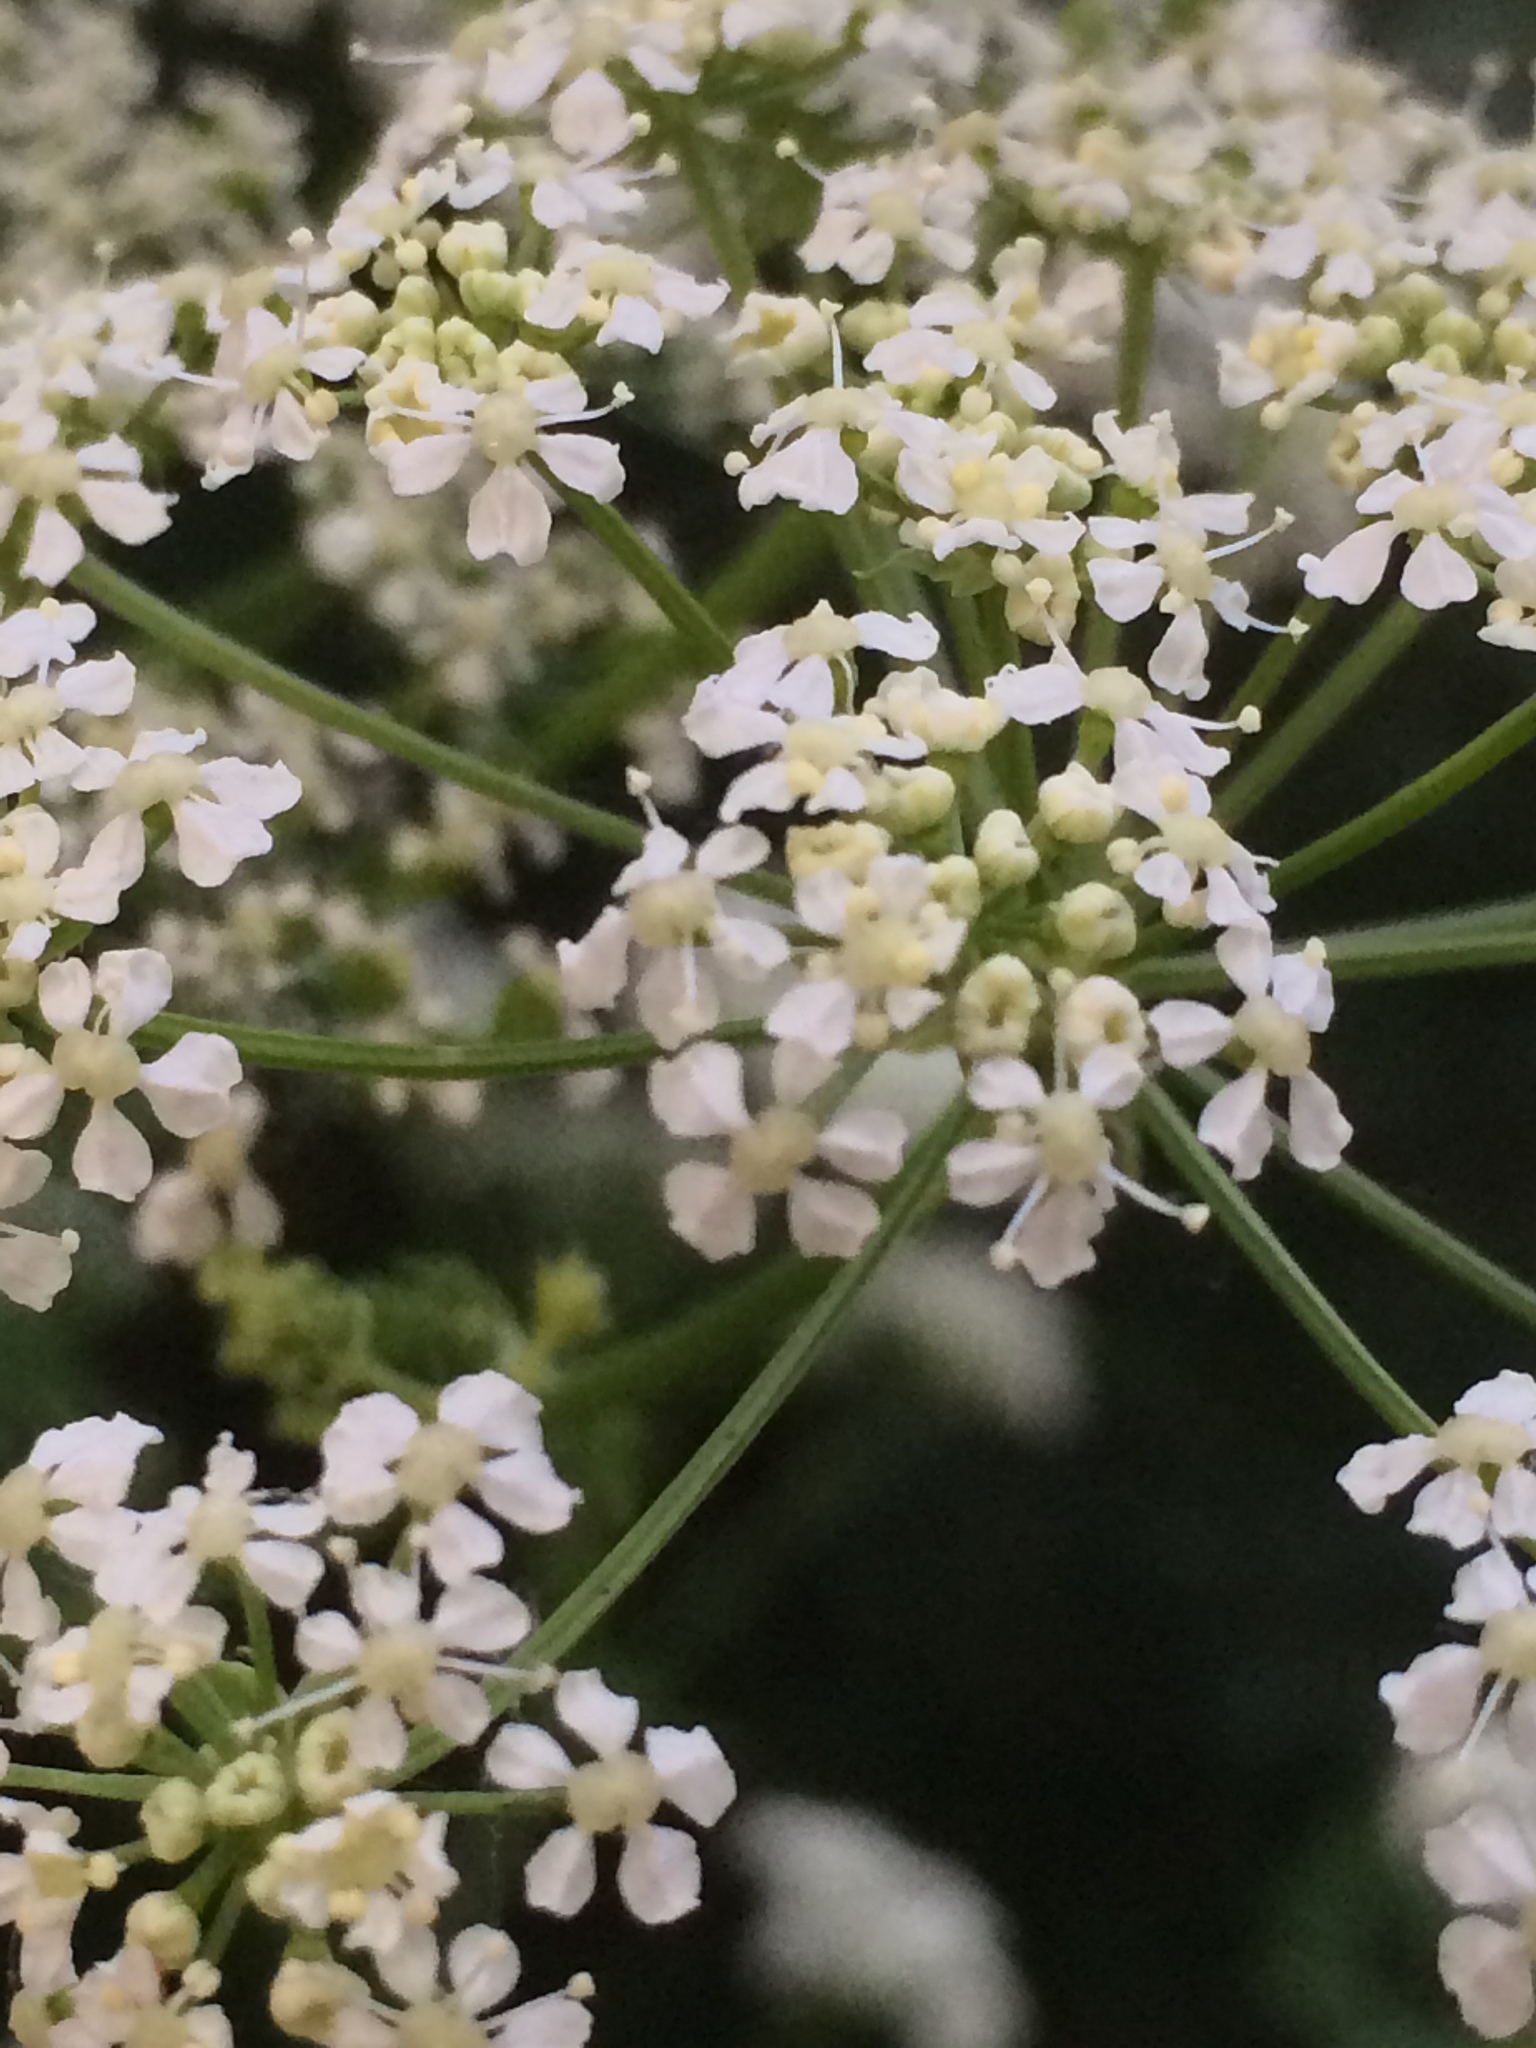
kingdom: Plantae
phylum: Tracheophyta
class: Magnoliopsida
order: Apiales
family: Apiaceae
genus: Conium
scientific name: Conium maculatum
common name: Hemlock
